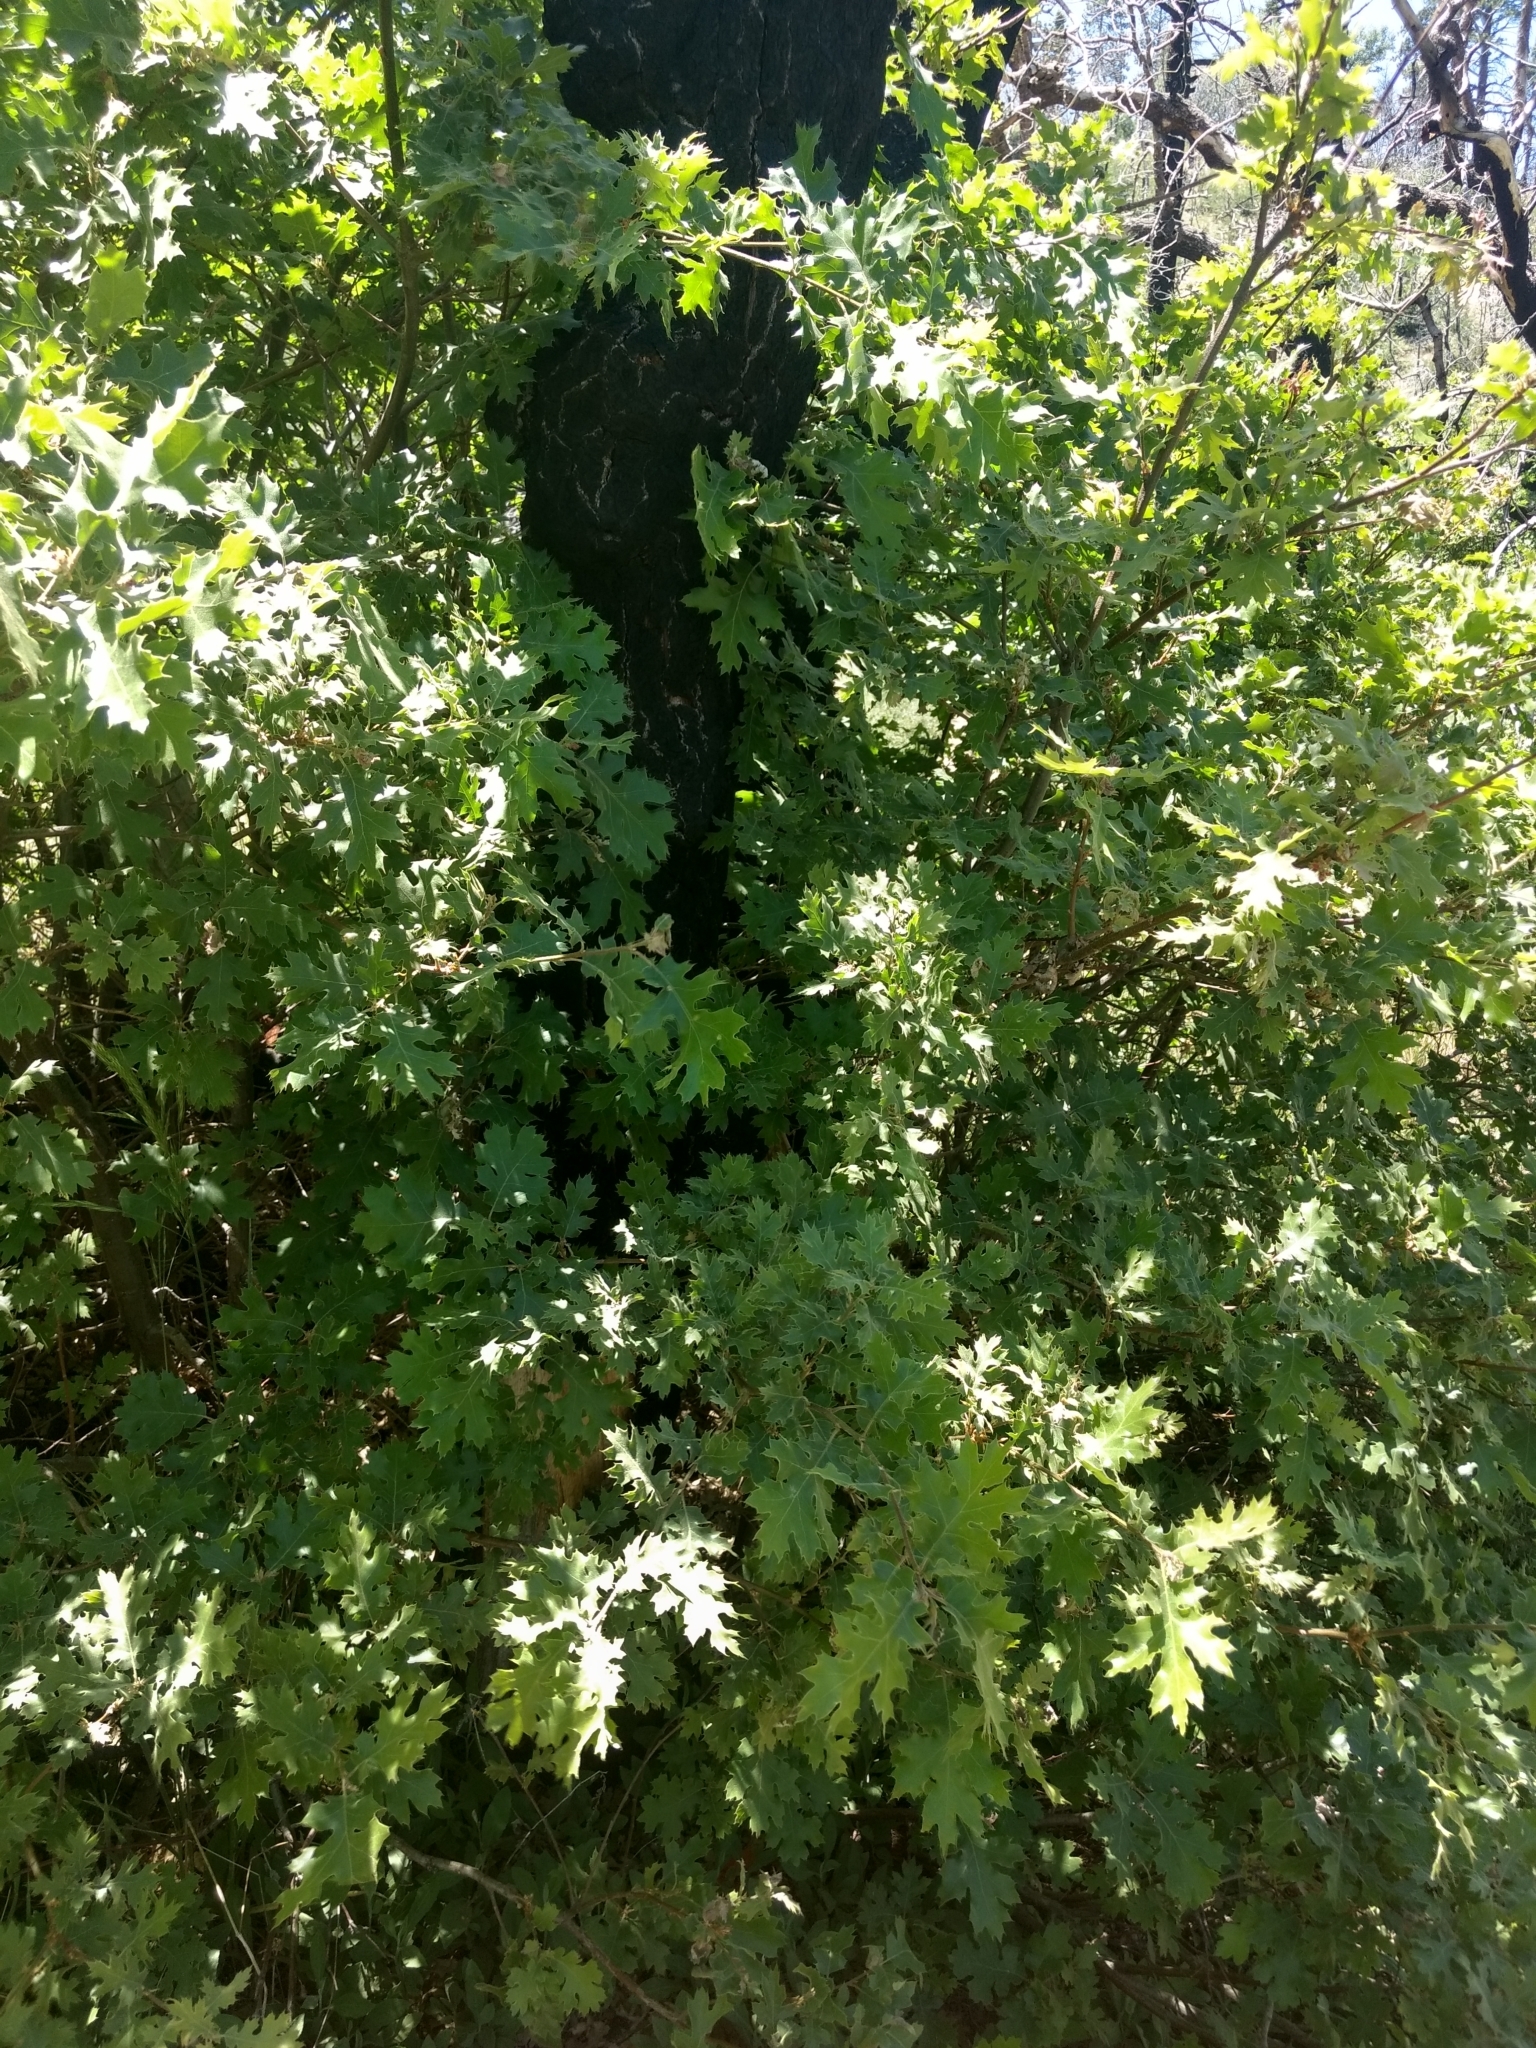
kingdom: Plantae
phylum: Tracheophyta
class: Magnoliopsida
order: Fagales
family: Fagaceae
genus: Quercus
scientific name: Quercus kelloggii
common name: California black oak
